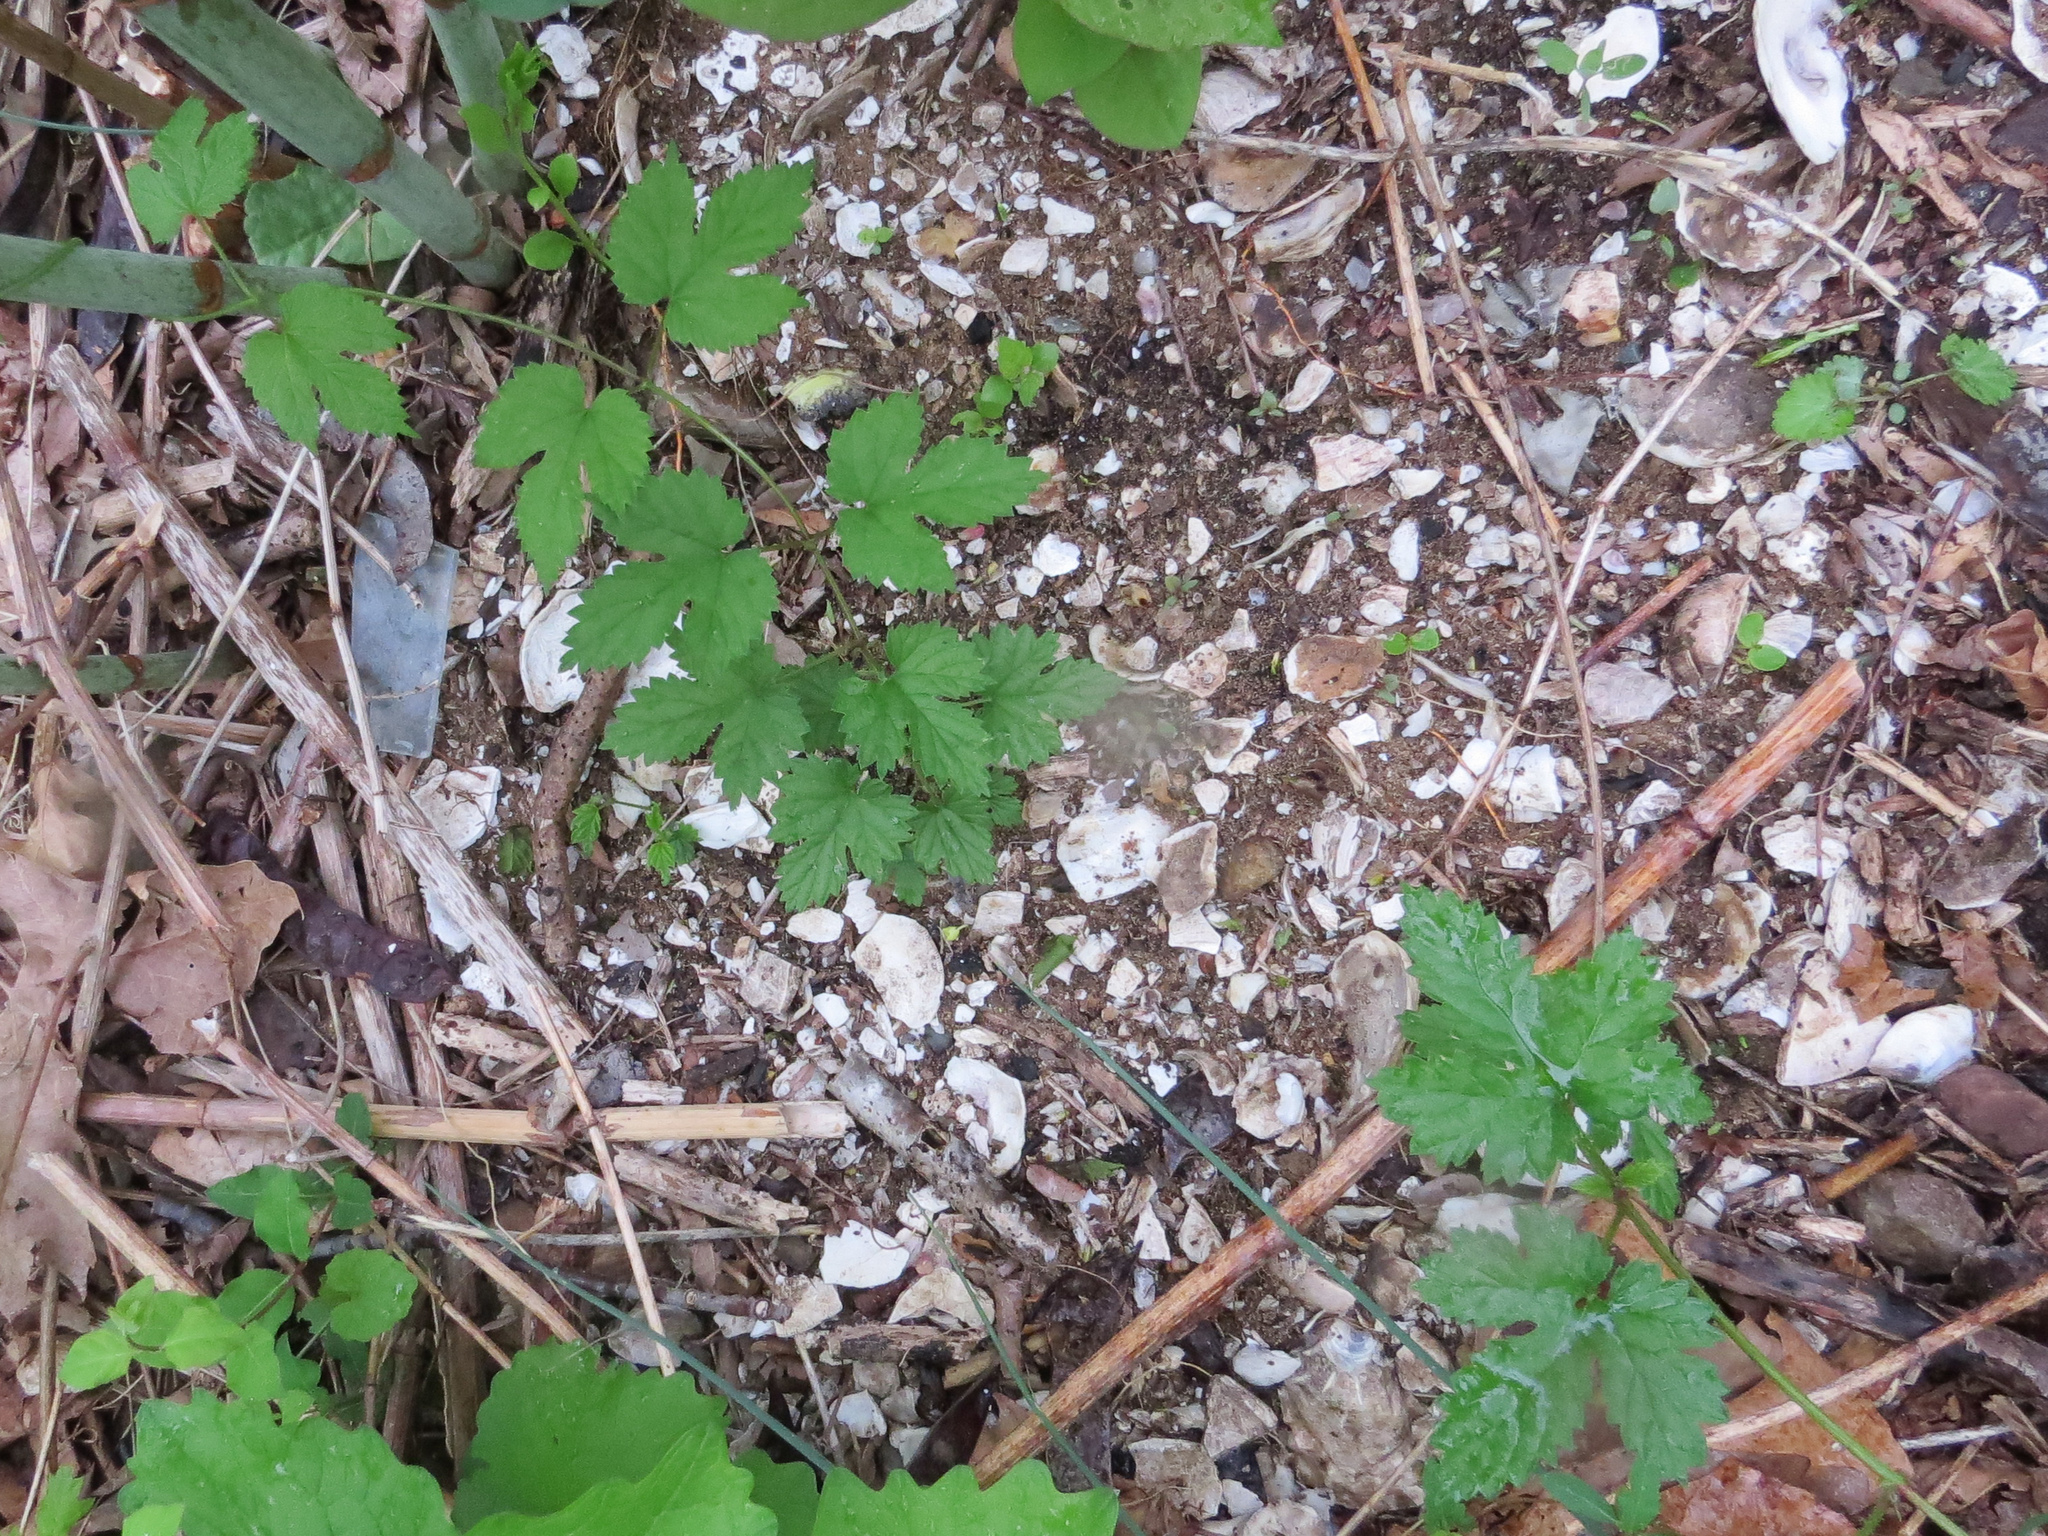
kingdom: Plantae
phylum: Tracheophyta
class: Magnoliopsida
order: Rosales
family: Cannabaceae
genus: Humulus
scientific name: Humulus lupulus
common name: Hop
